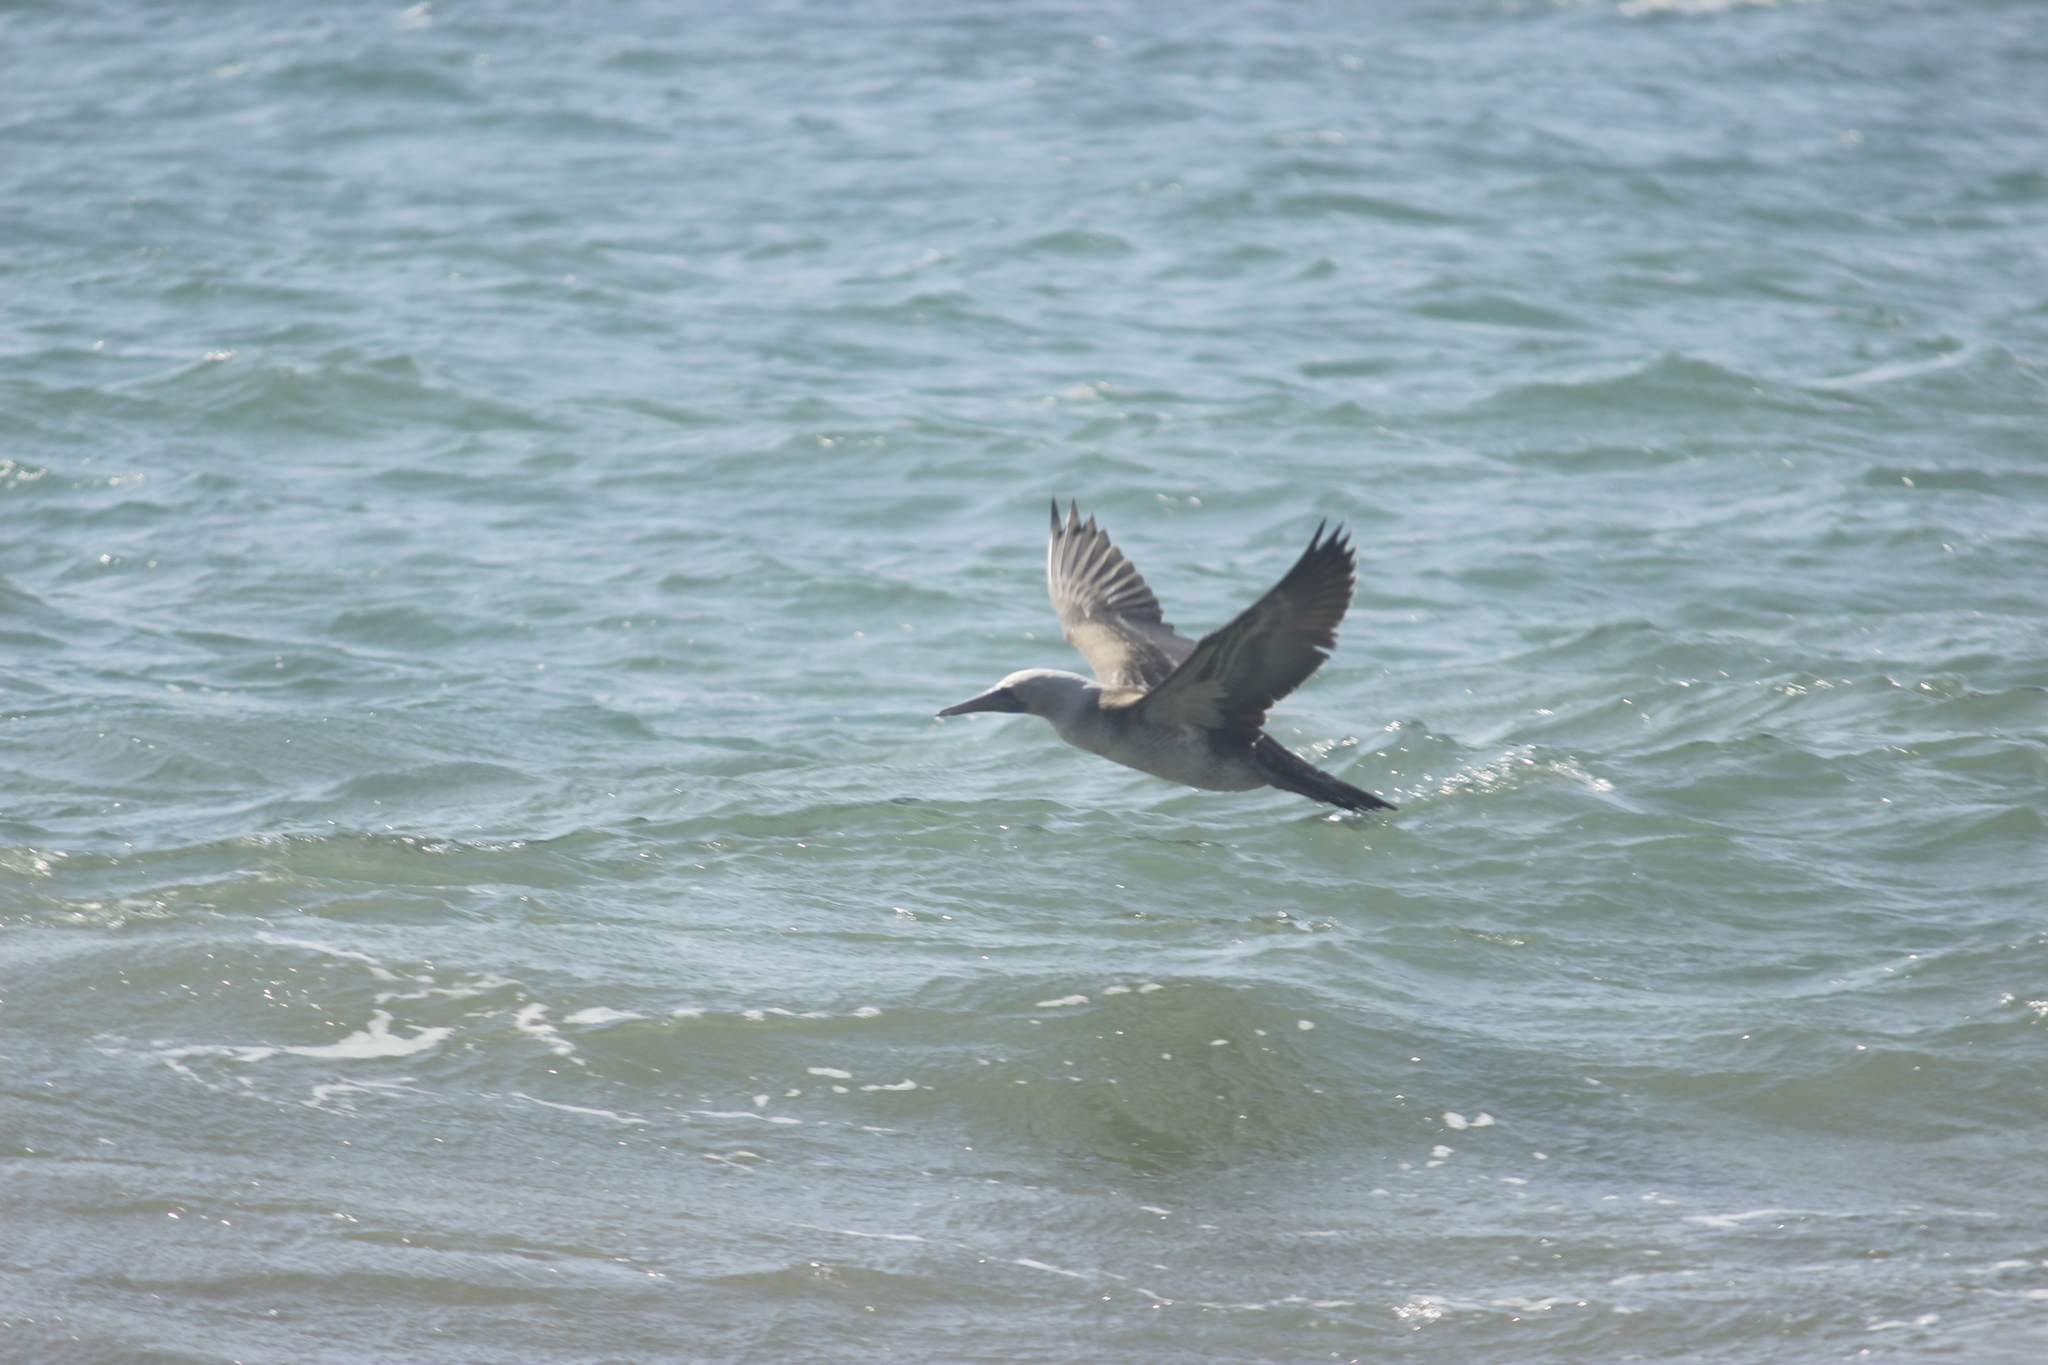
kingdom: Animalia
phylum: Chordata
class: Aves
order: Suliformes
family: Sulidae
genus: Sula
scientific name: Sula variegata
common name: Peruvian booby
